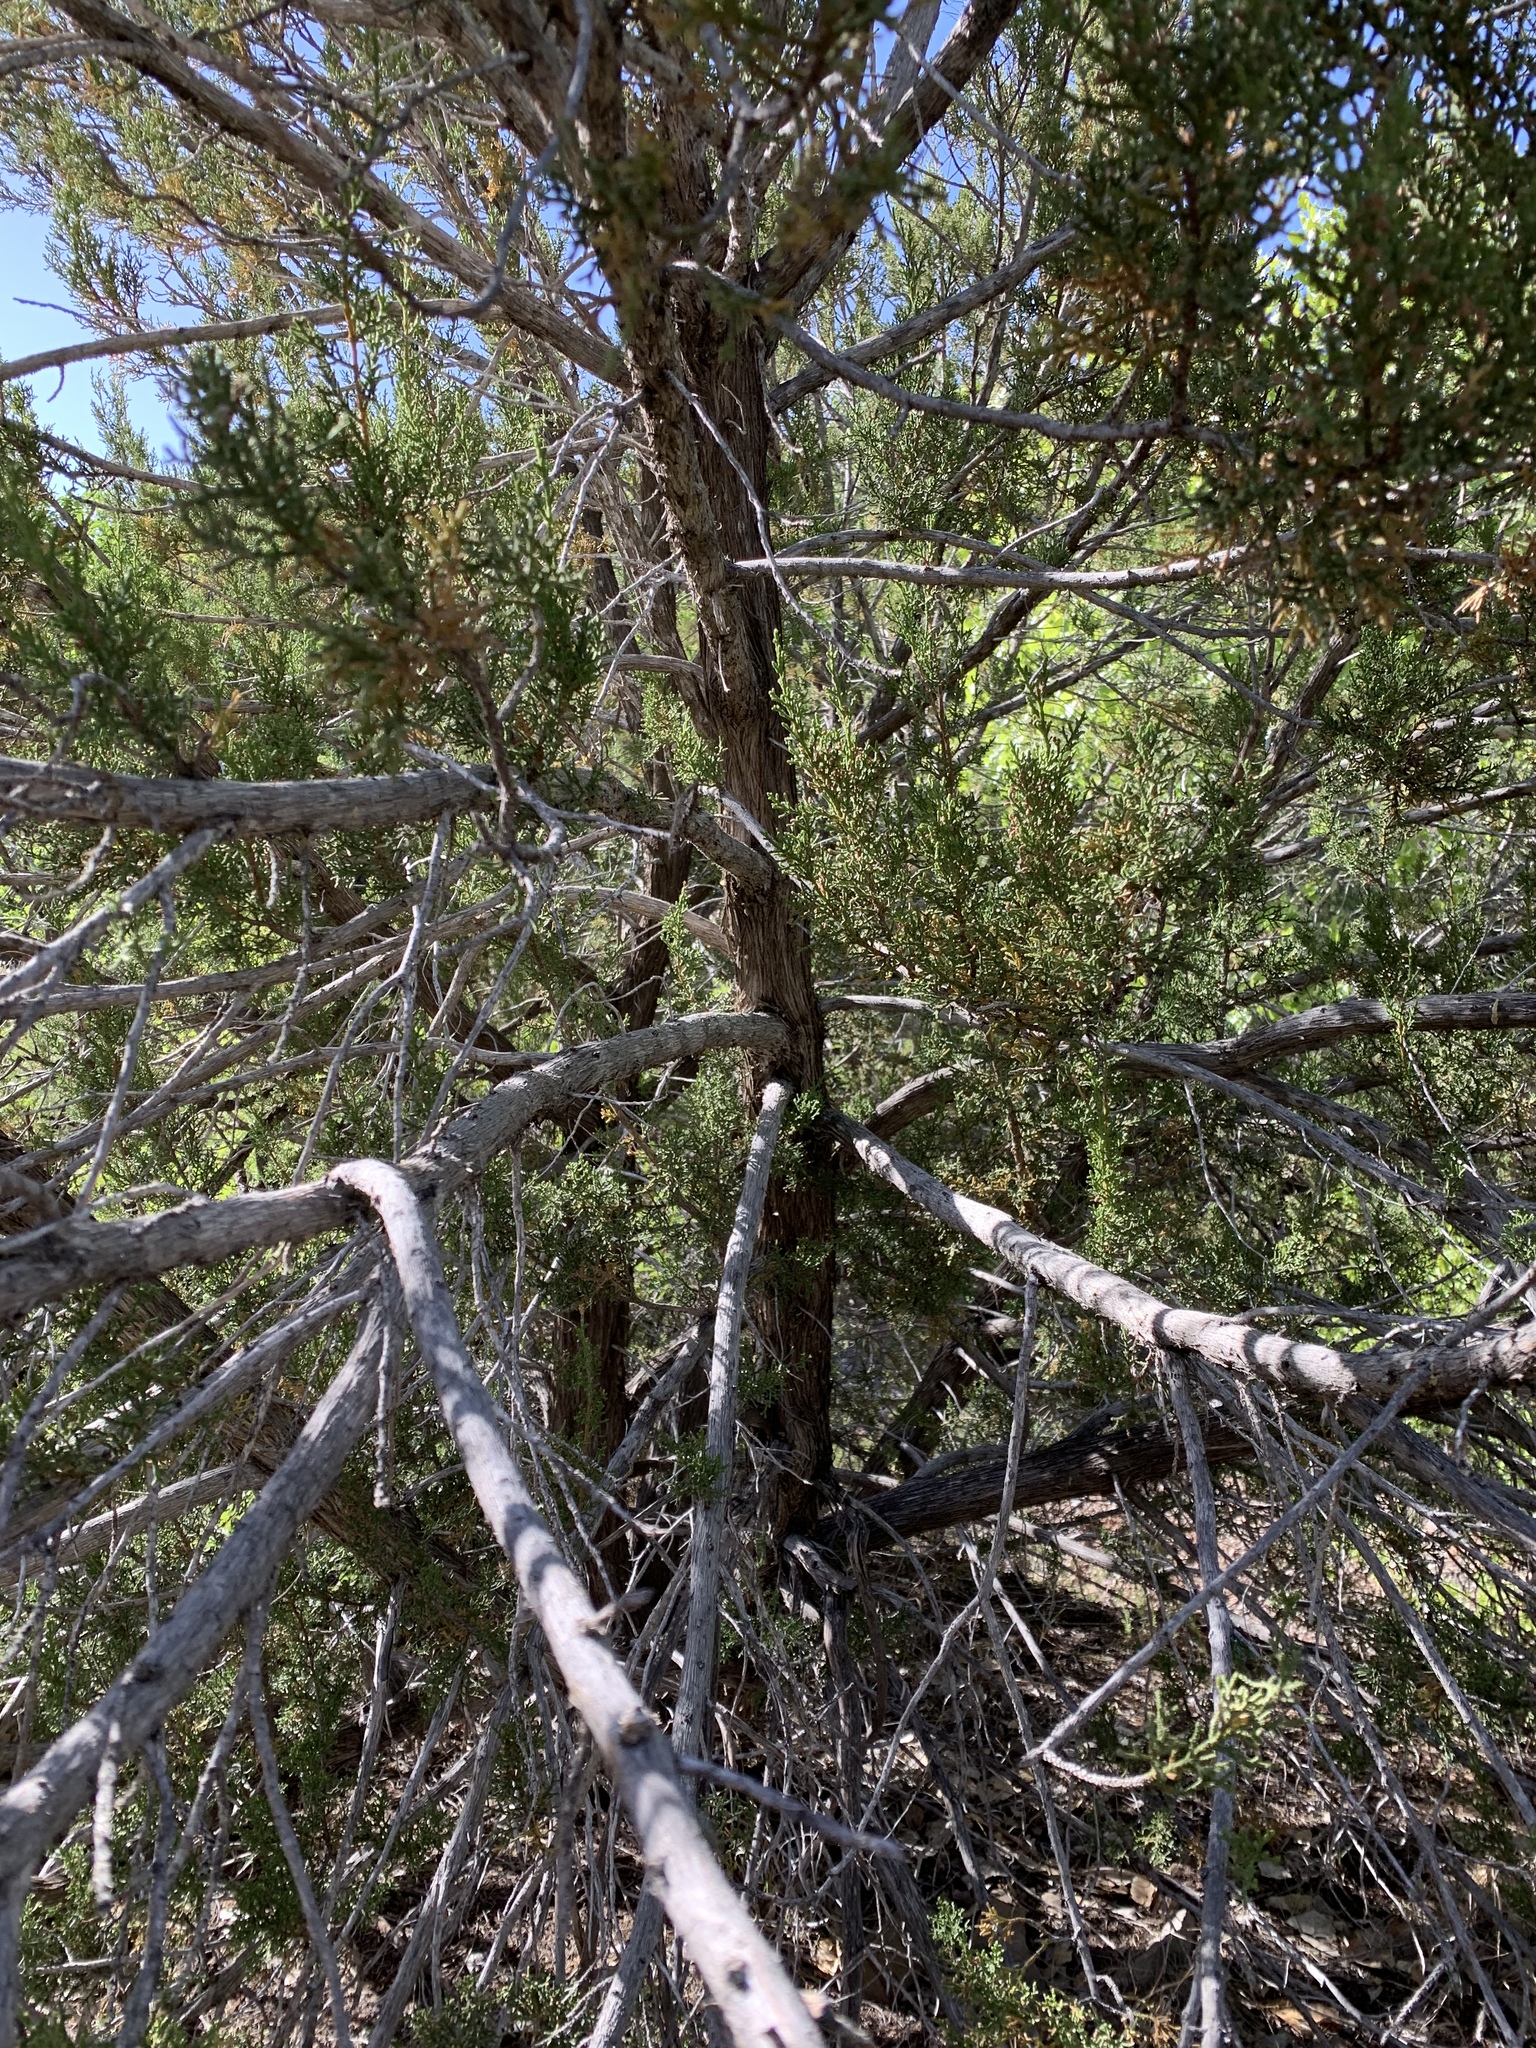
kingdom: Plantae
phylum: Tracheophyta
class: Pinopsida
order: Pinales
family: Cupressaceae
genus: Juniperus
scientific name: Juniperus monosperma
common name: One-seed juniper
